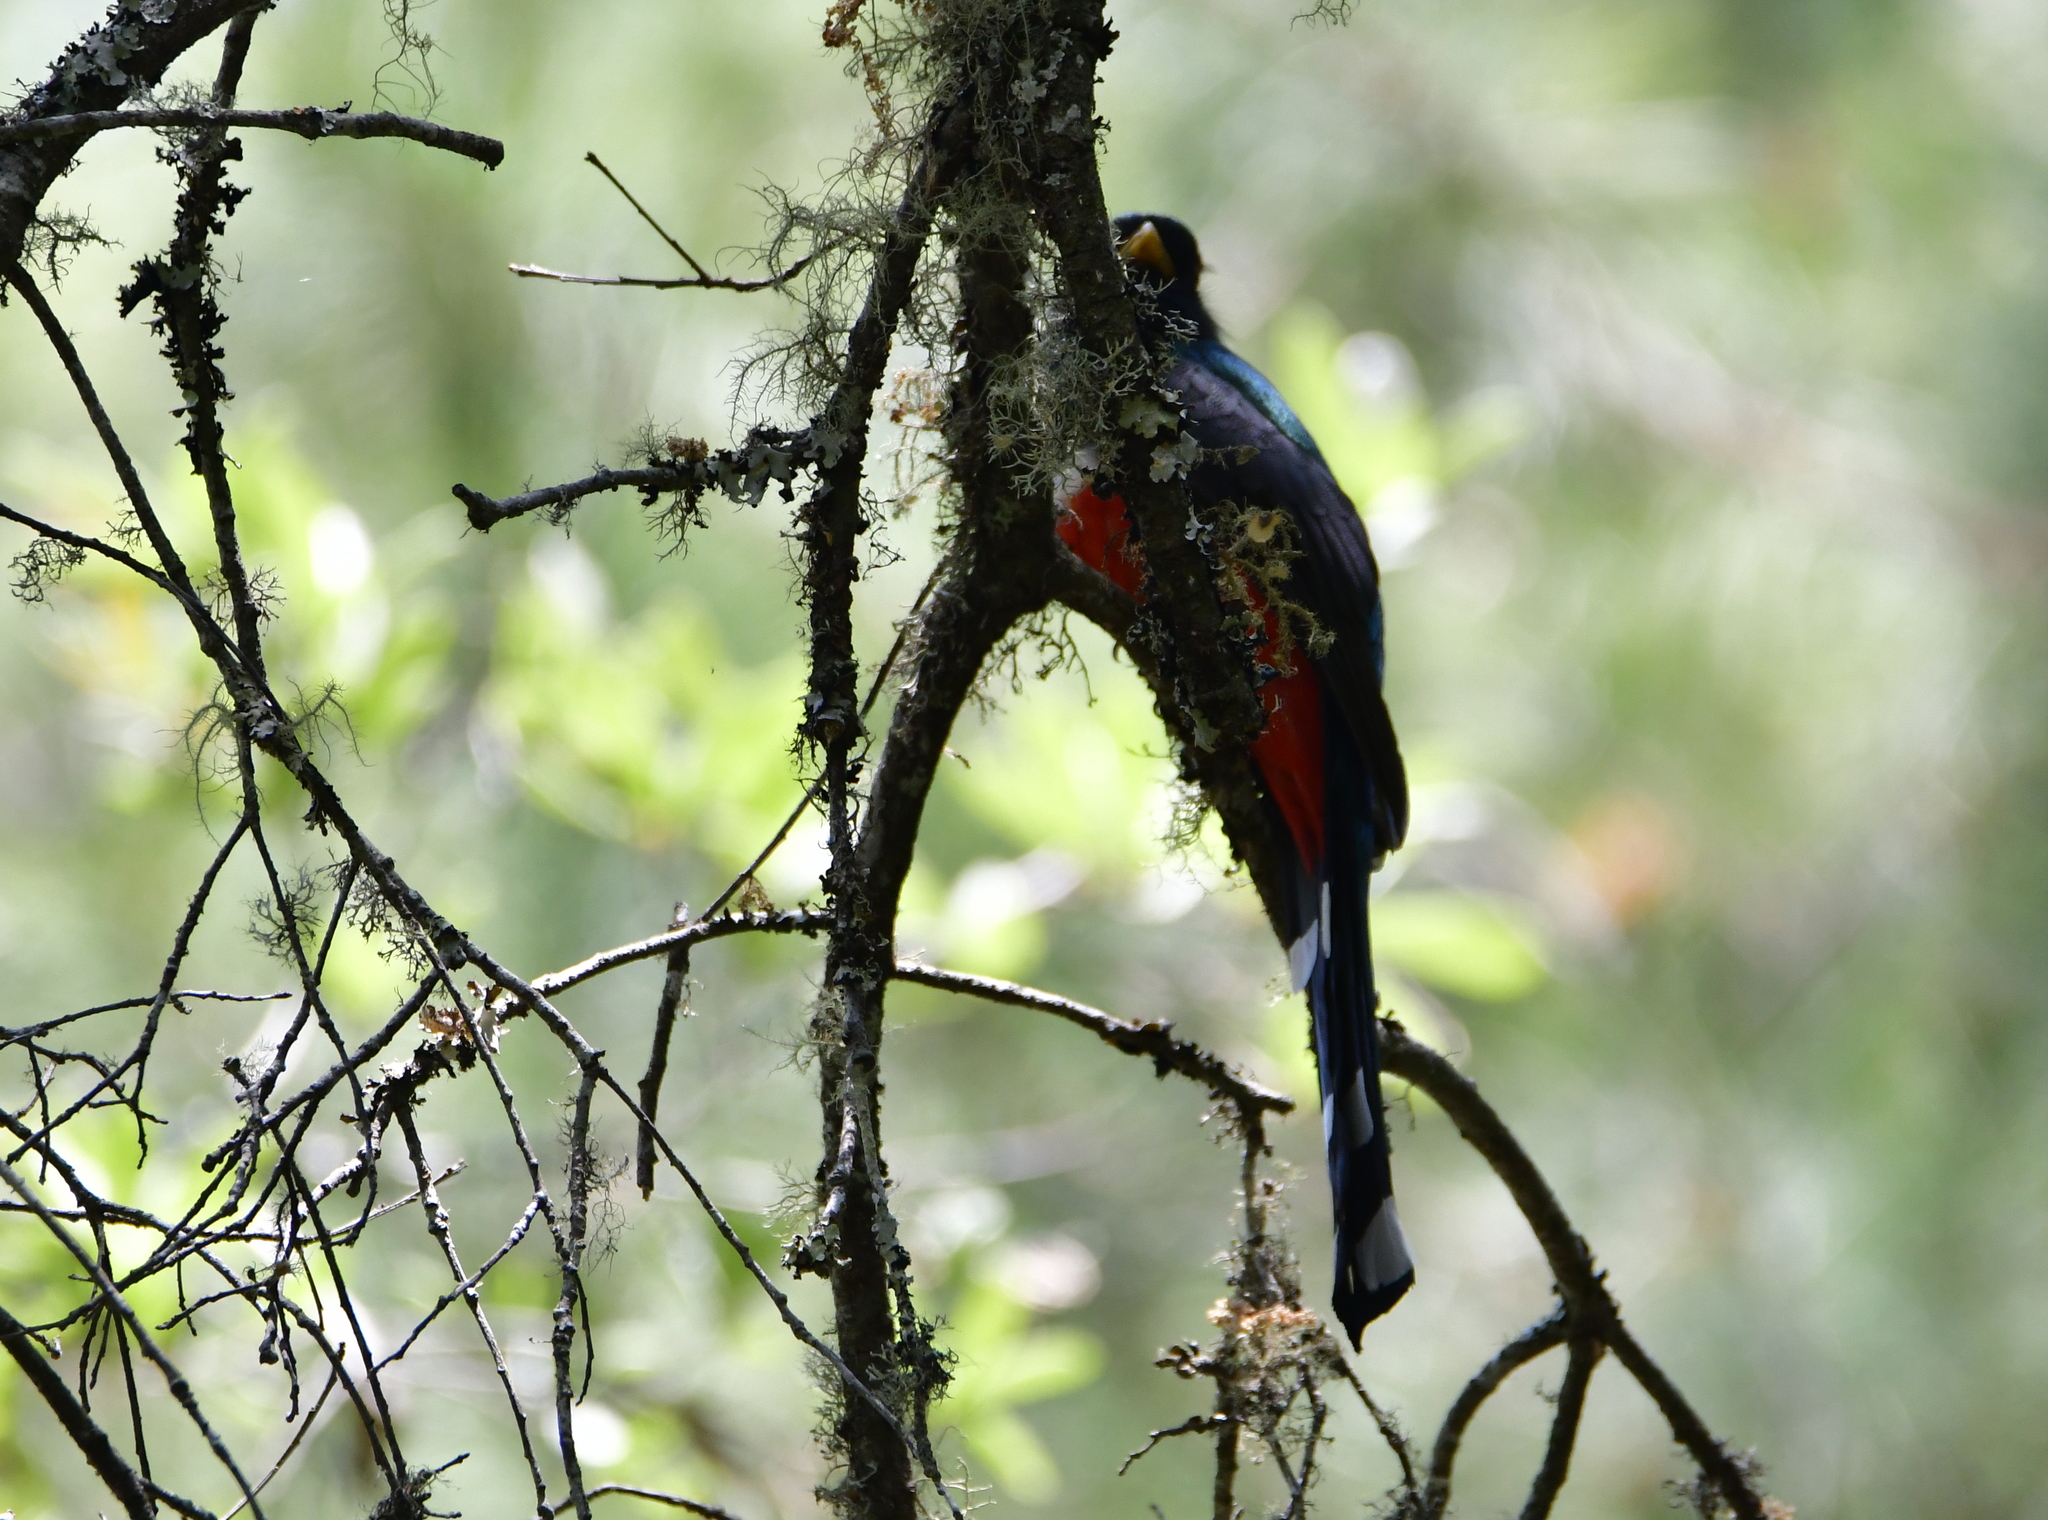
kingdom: Animalia
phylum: Chordata
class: Aves
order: Trogoniformes
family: Trogonidae
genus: Trogon
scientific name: Trogon mexicanus
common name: Mountain trogon
